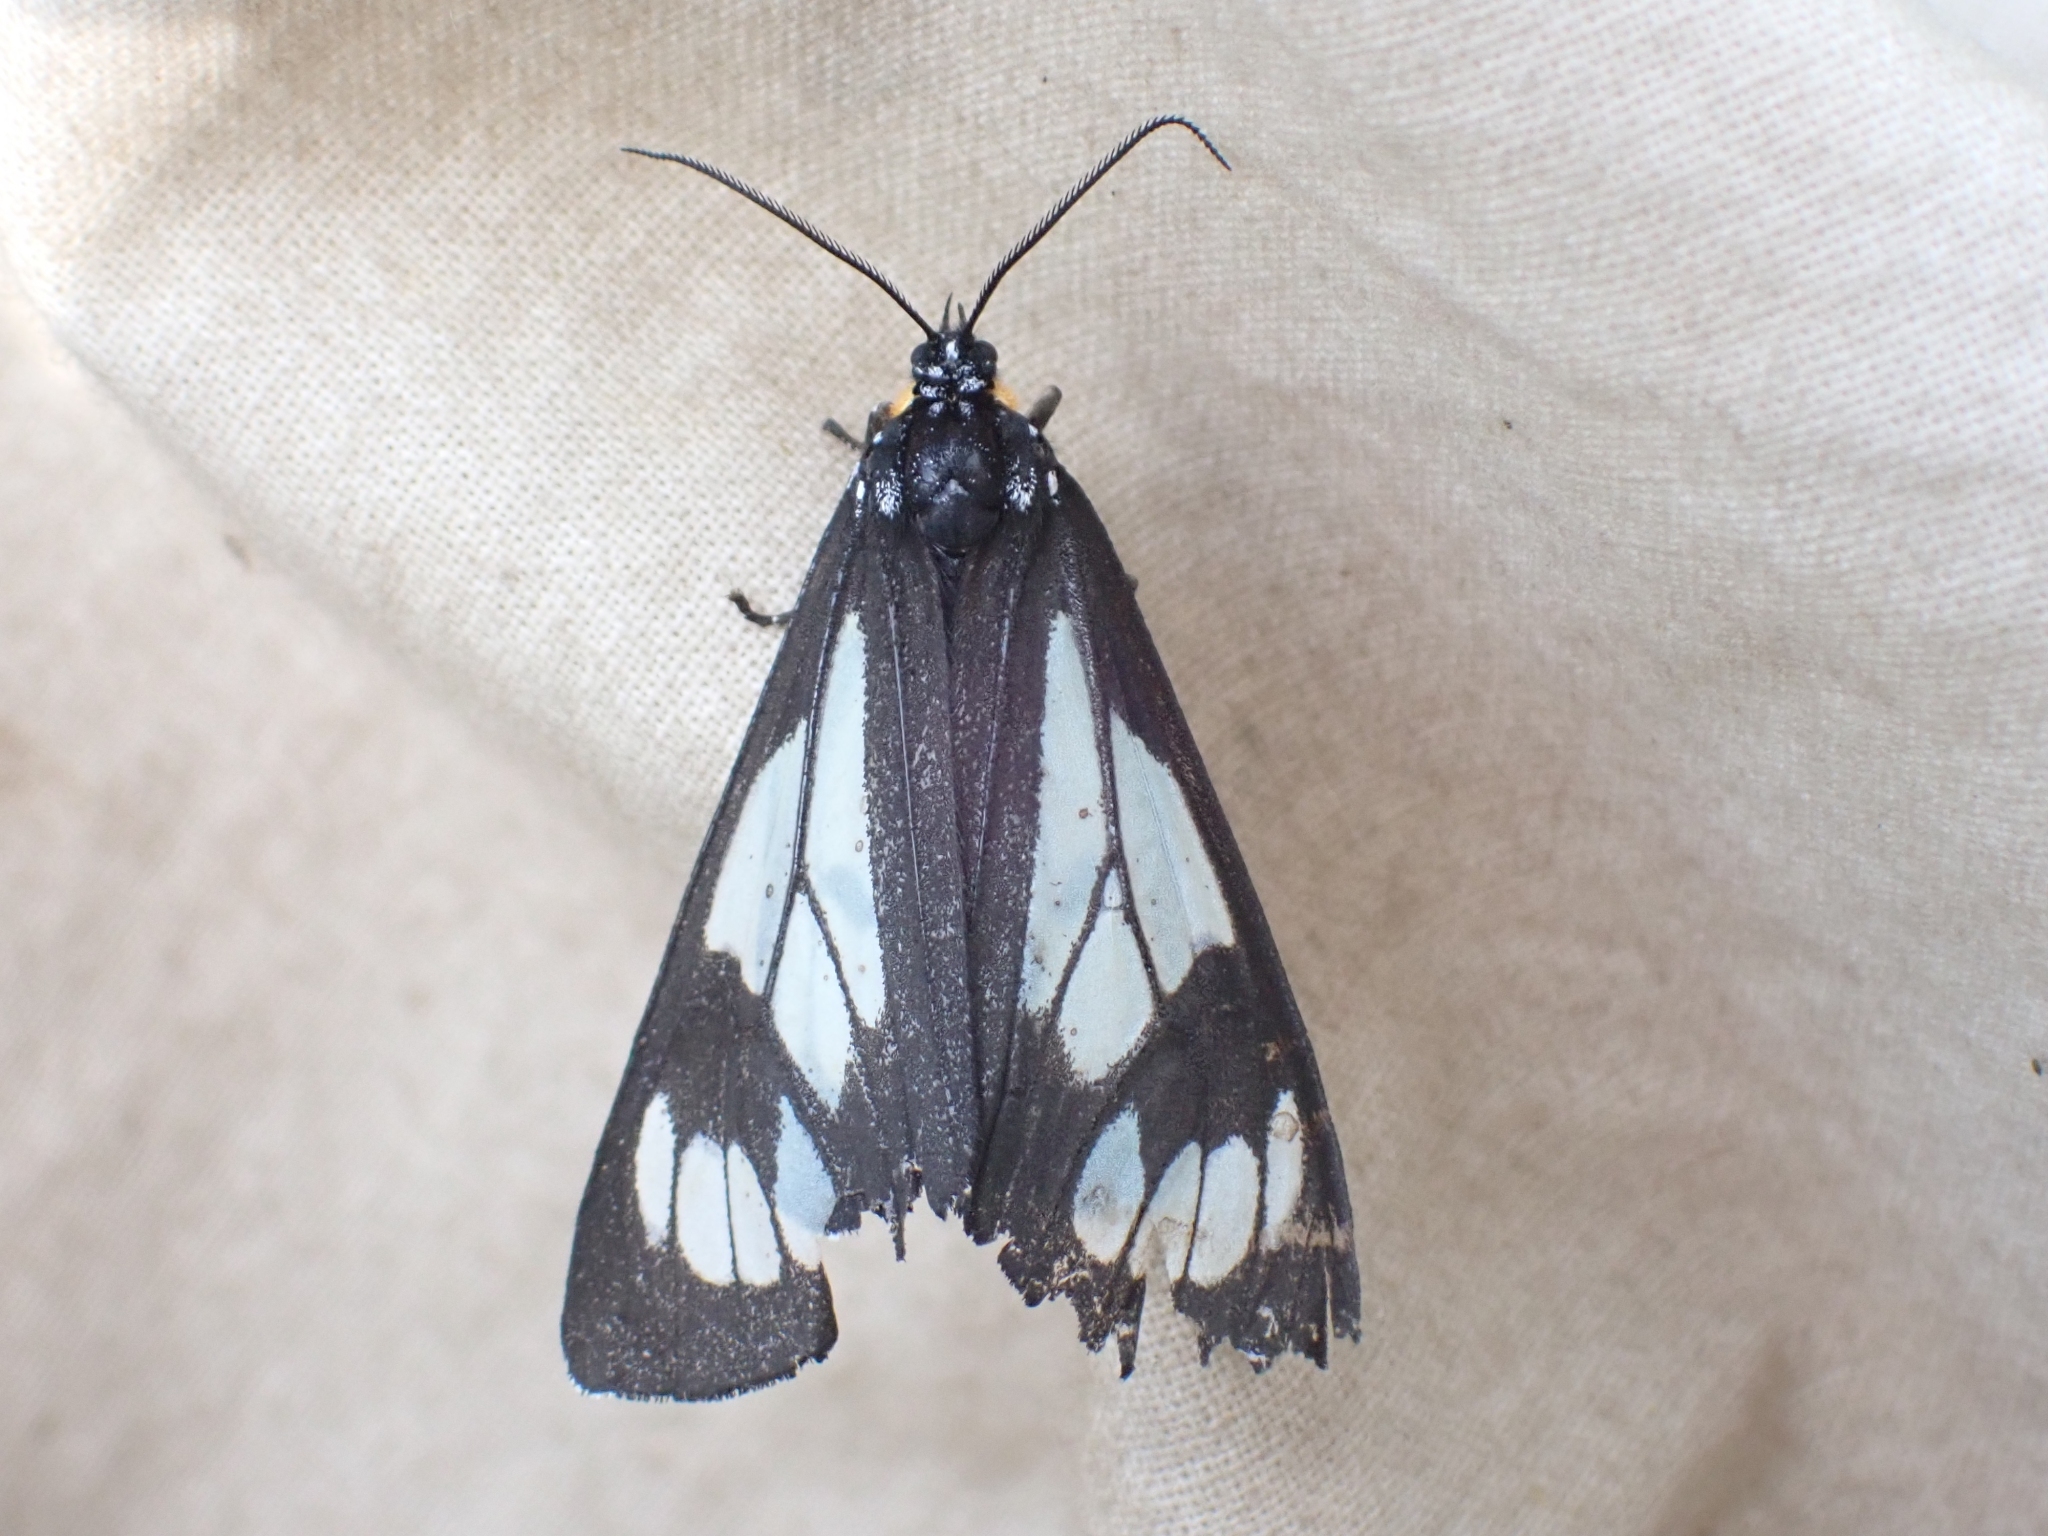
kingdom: Animalia
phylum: Arthropoda
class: Insecta
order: Lepidoptera
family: Erebidae
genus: Gnophaela
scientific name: Gnophaela vermiculata
